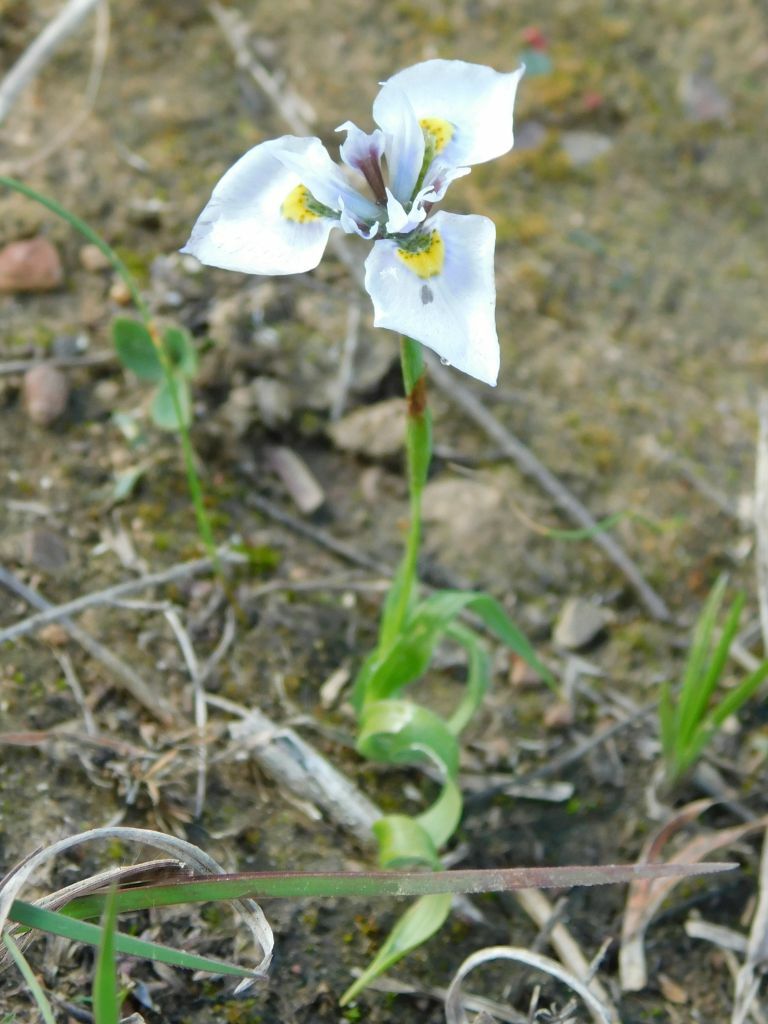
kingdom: Plantae
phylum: Tracheophyta
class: Liliopsida
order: Asparagales
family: Iridaceae
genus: Moraea
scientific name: Moraea fergusoniae
